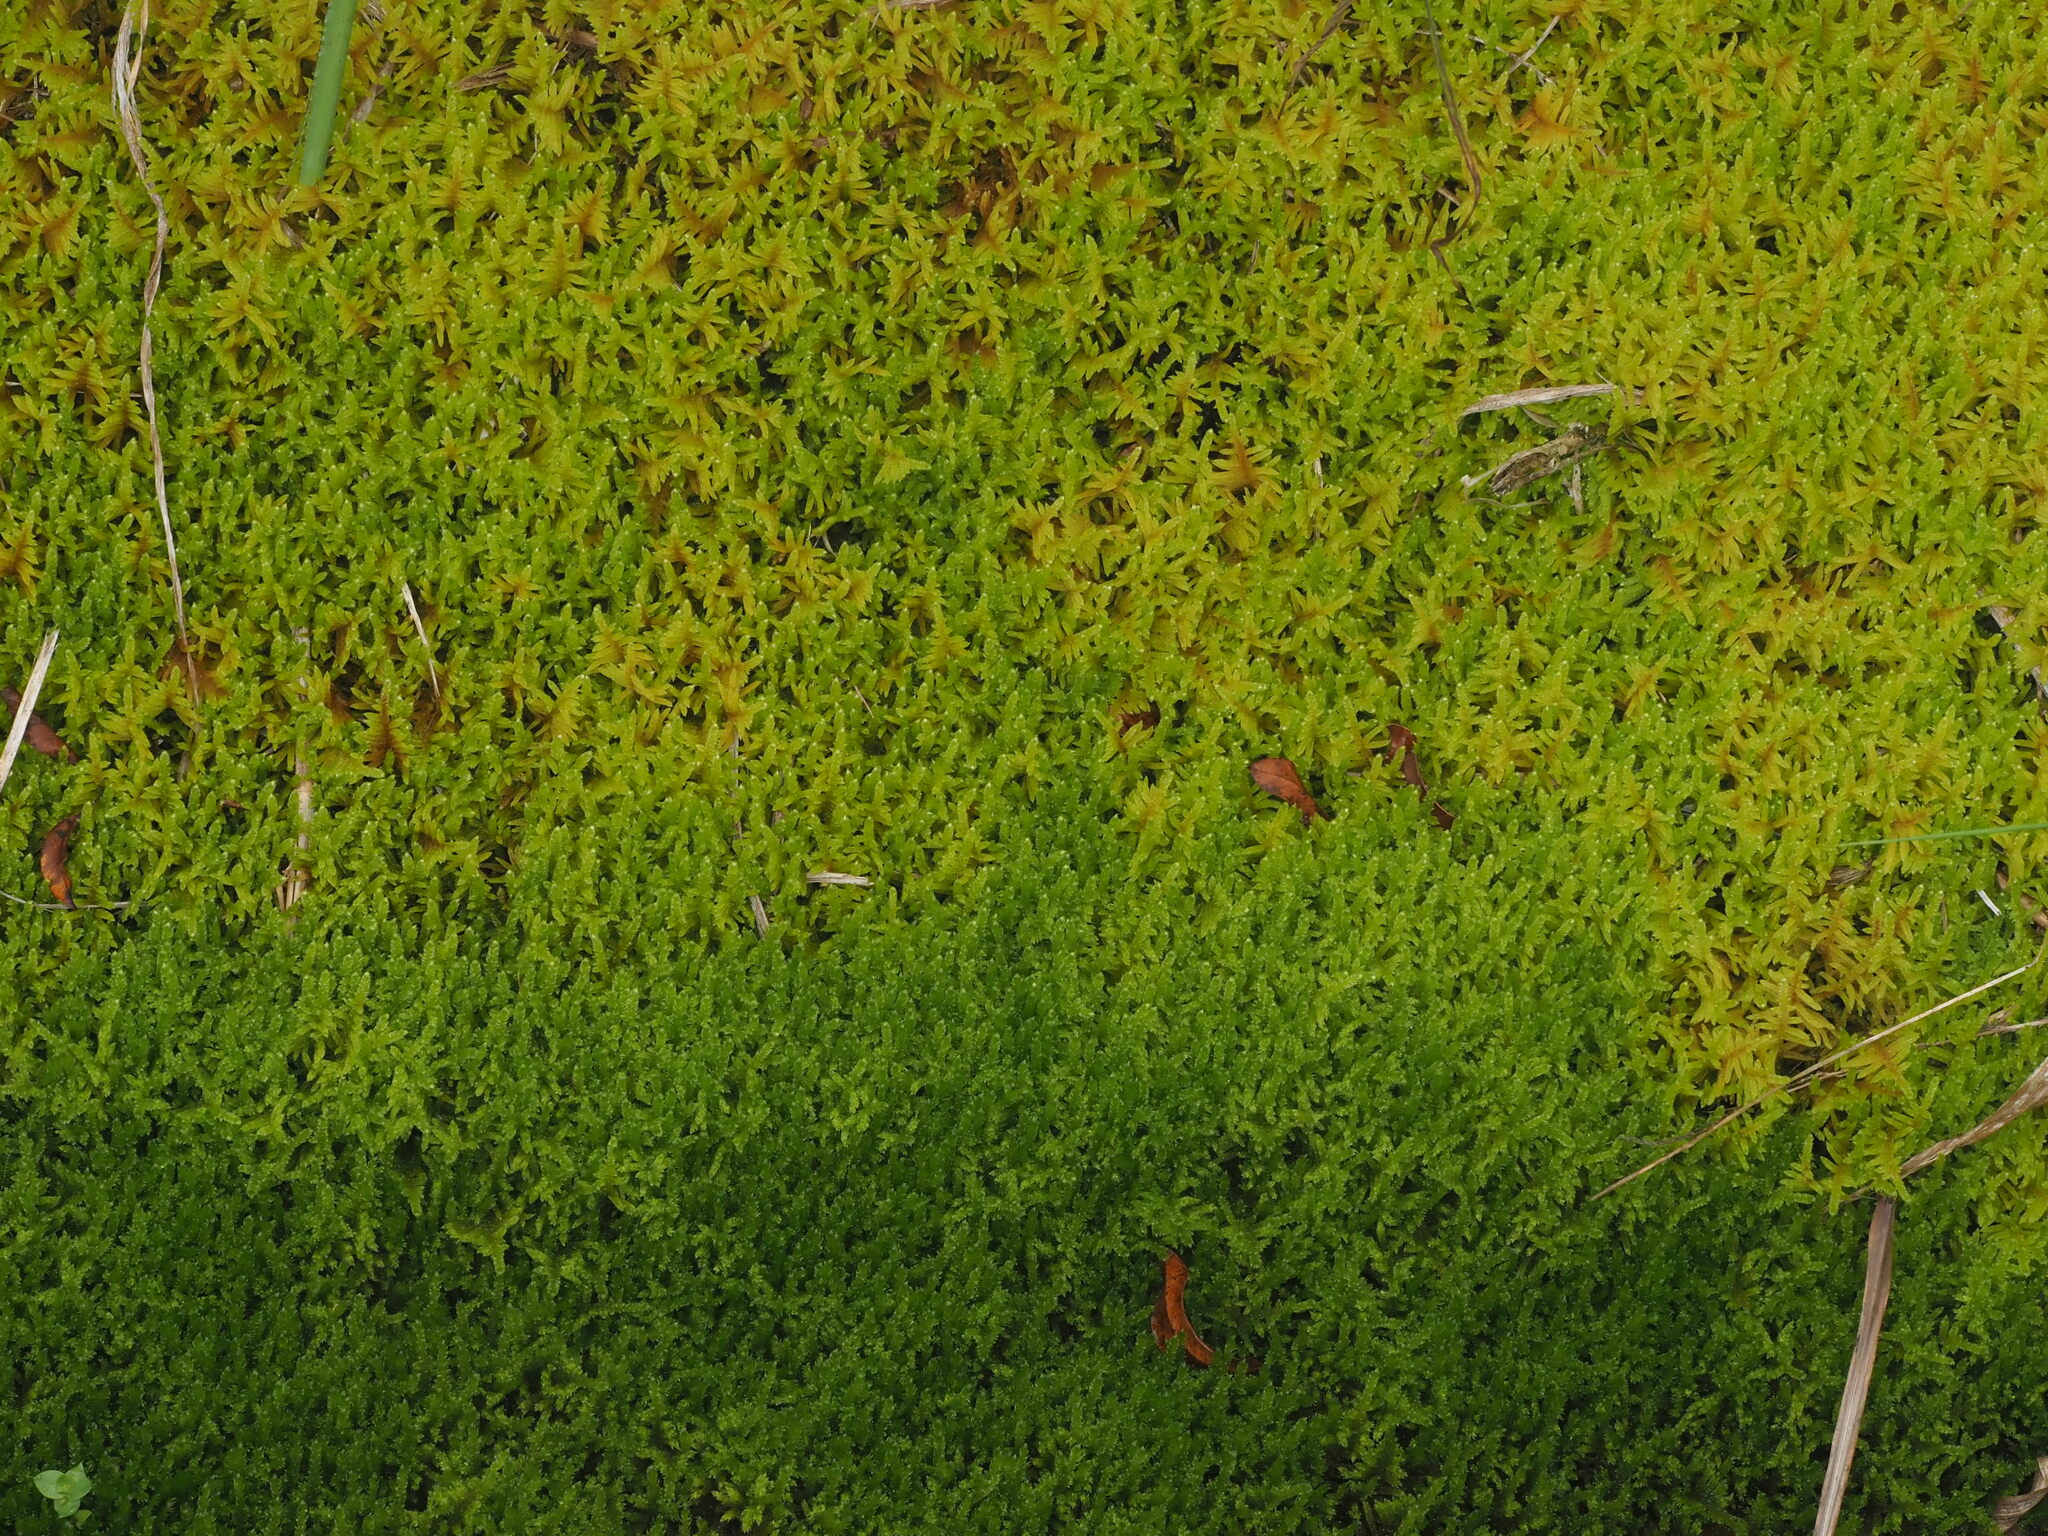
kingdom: Plantae
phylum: Bryophyta
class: Bryopsida
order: Hypnales
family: Hypnaceae
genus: Hypnum
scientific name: Hypnum plumaeforme
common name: Cypress-leaved plaitmoss
